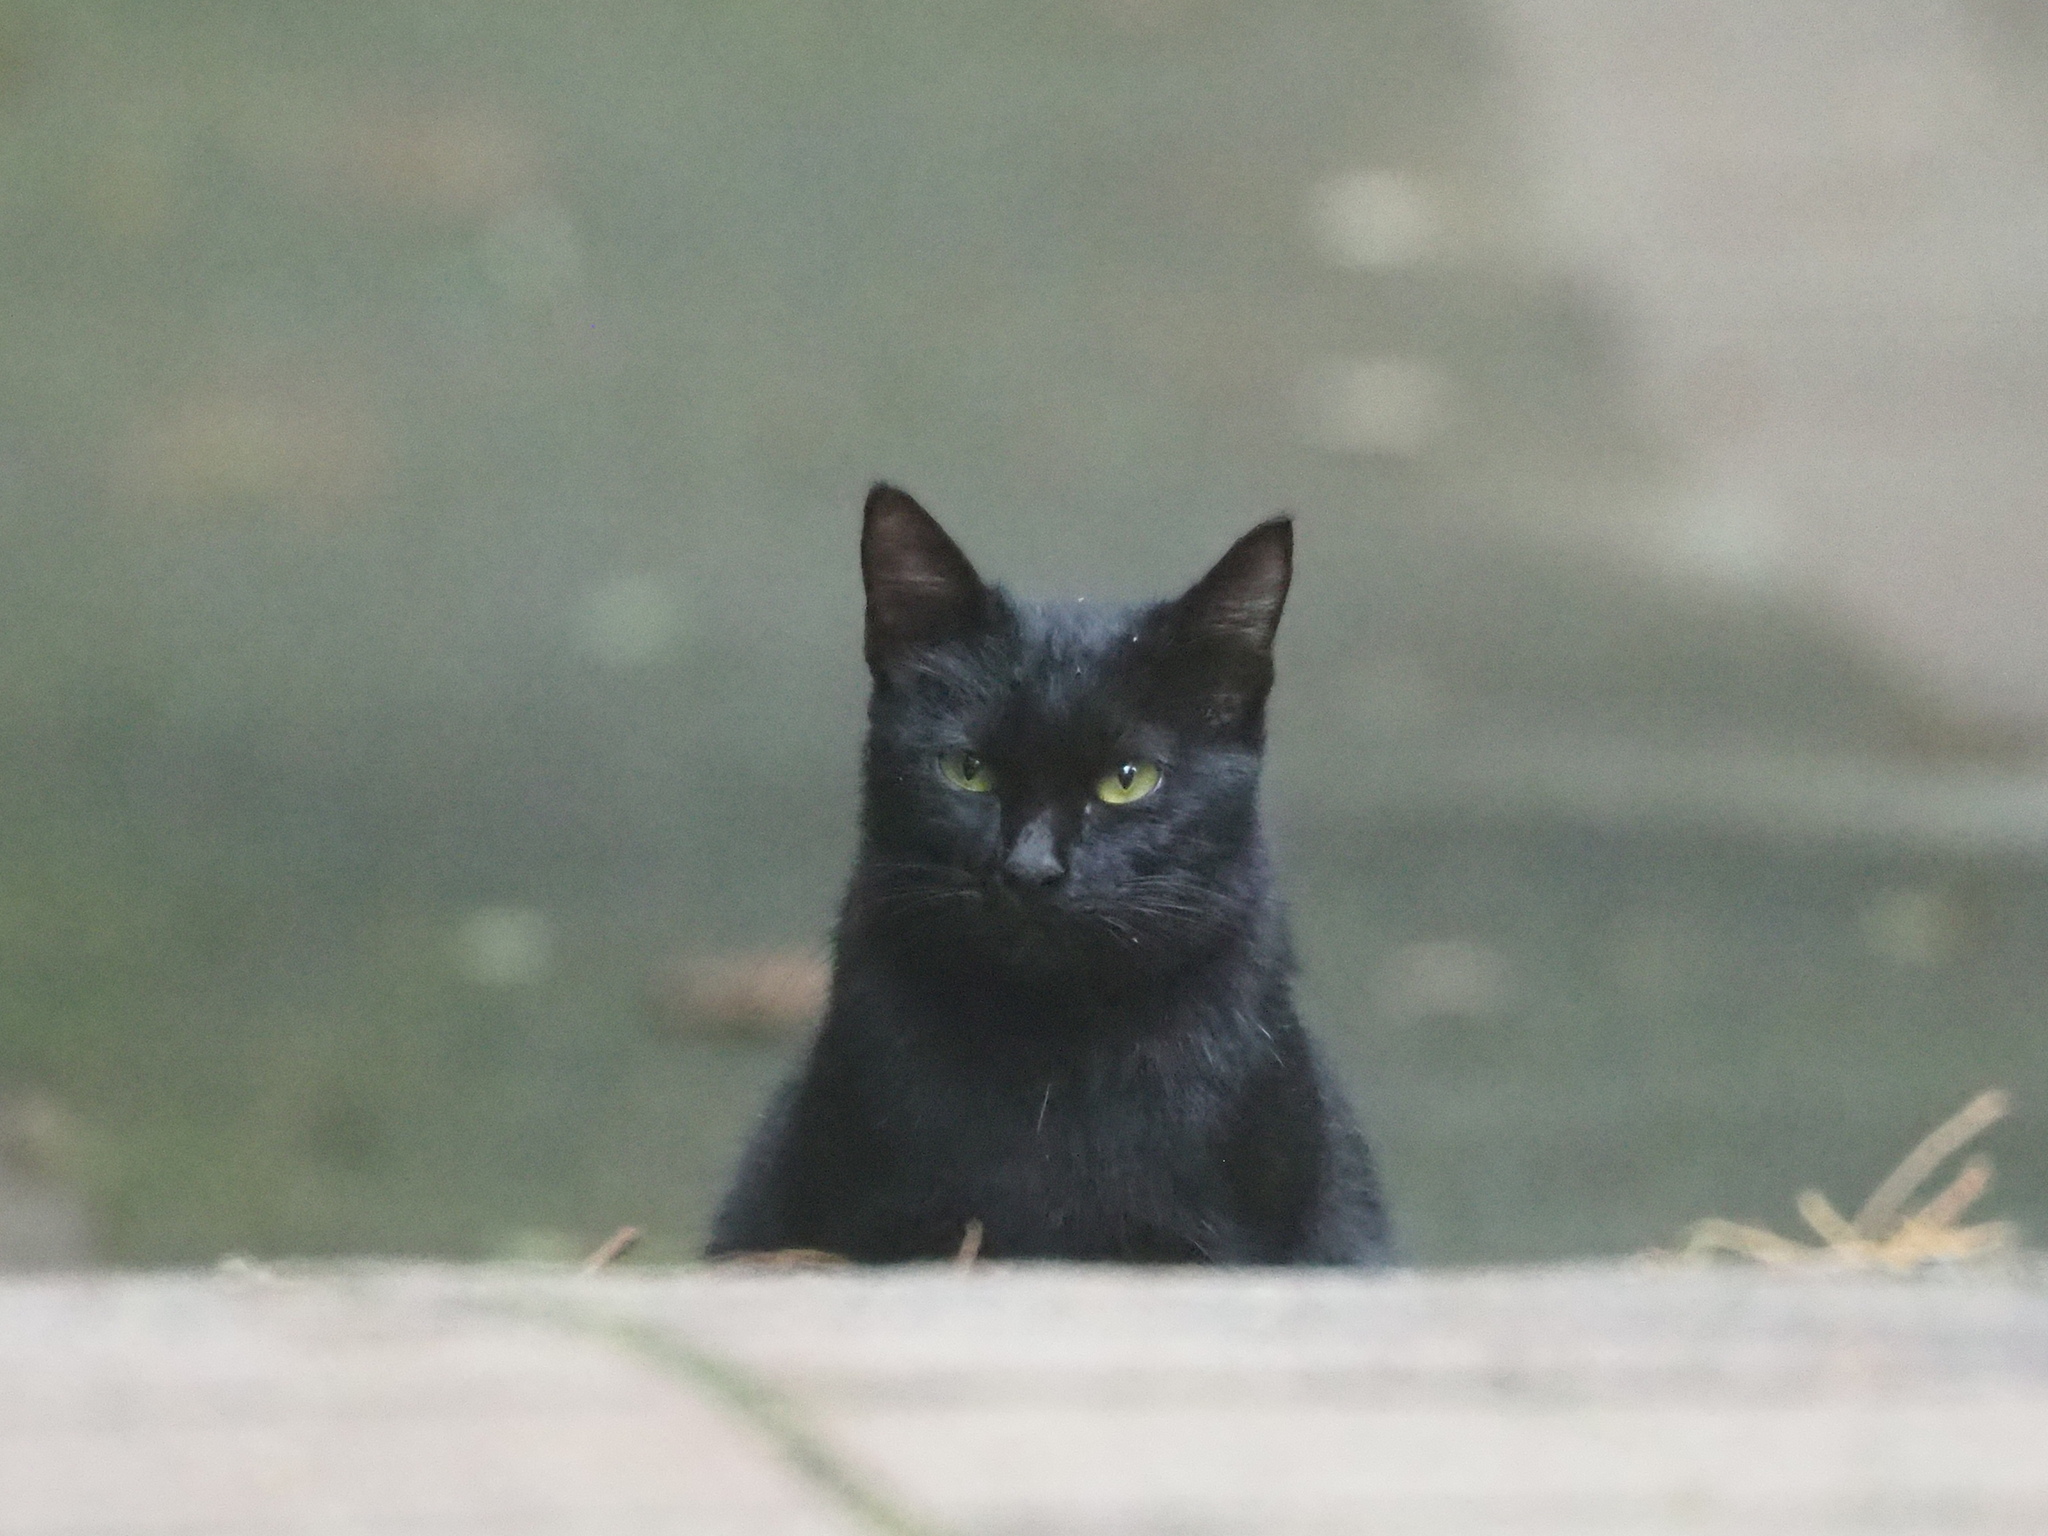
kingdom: Animalia
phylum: Chordata
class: Mammalia
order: Carnivora
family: Felidae
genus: Felis
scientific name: Felis catus
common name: Domestic cat
